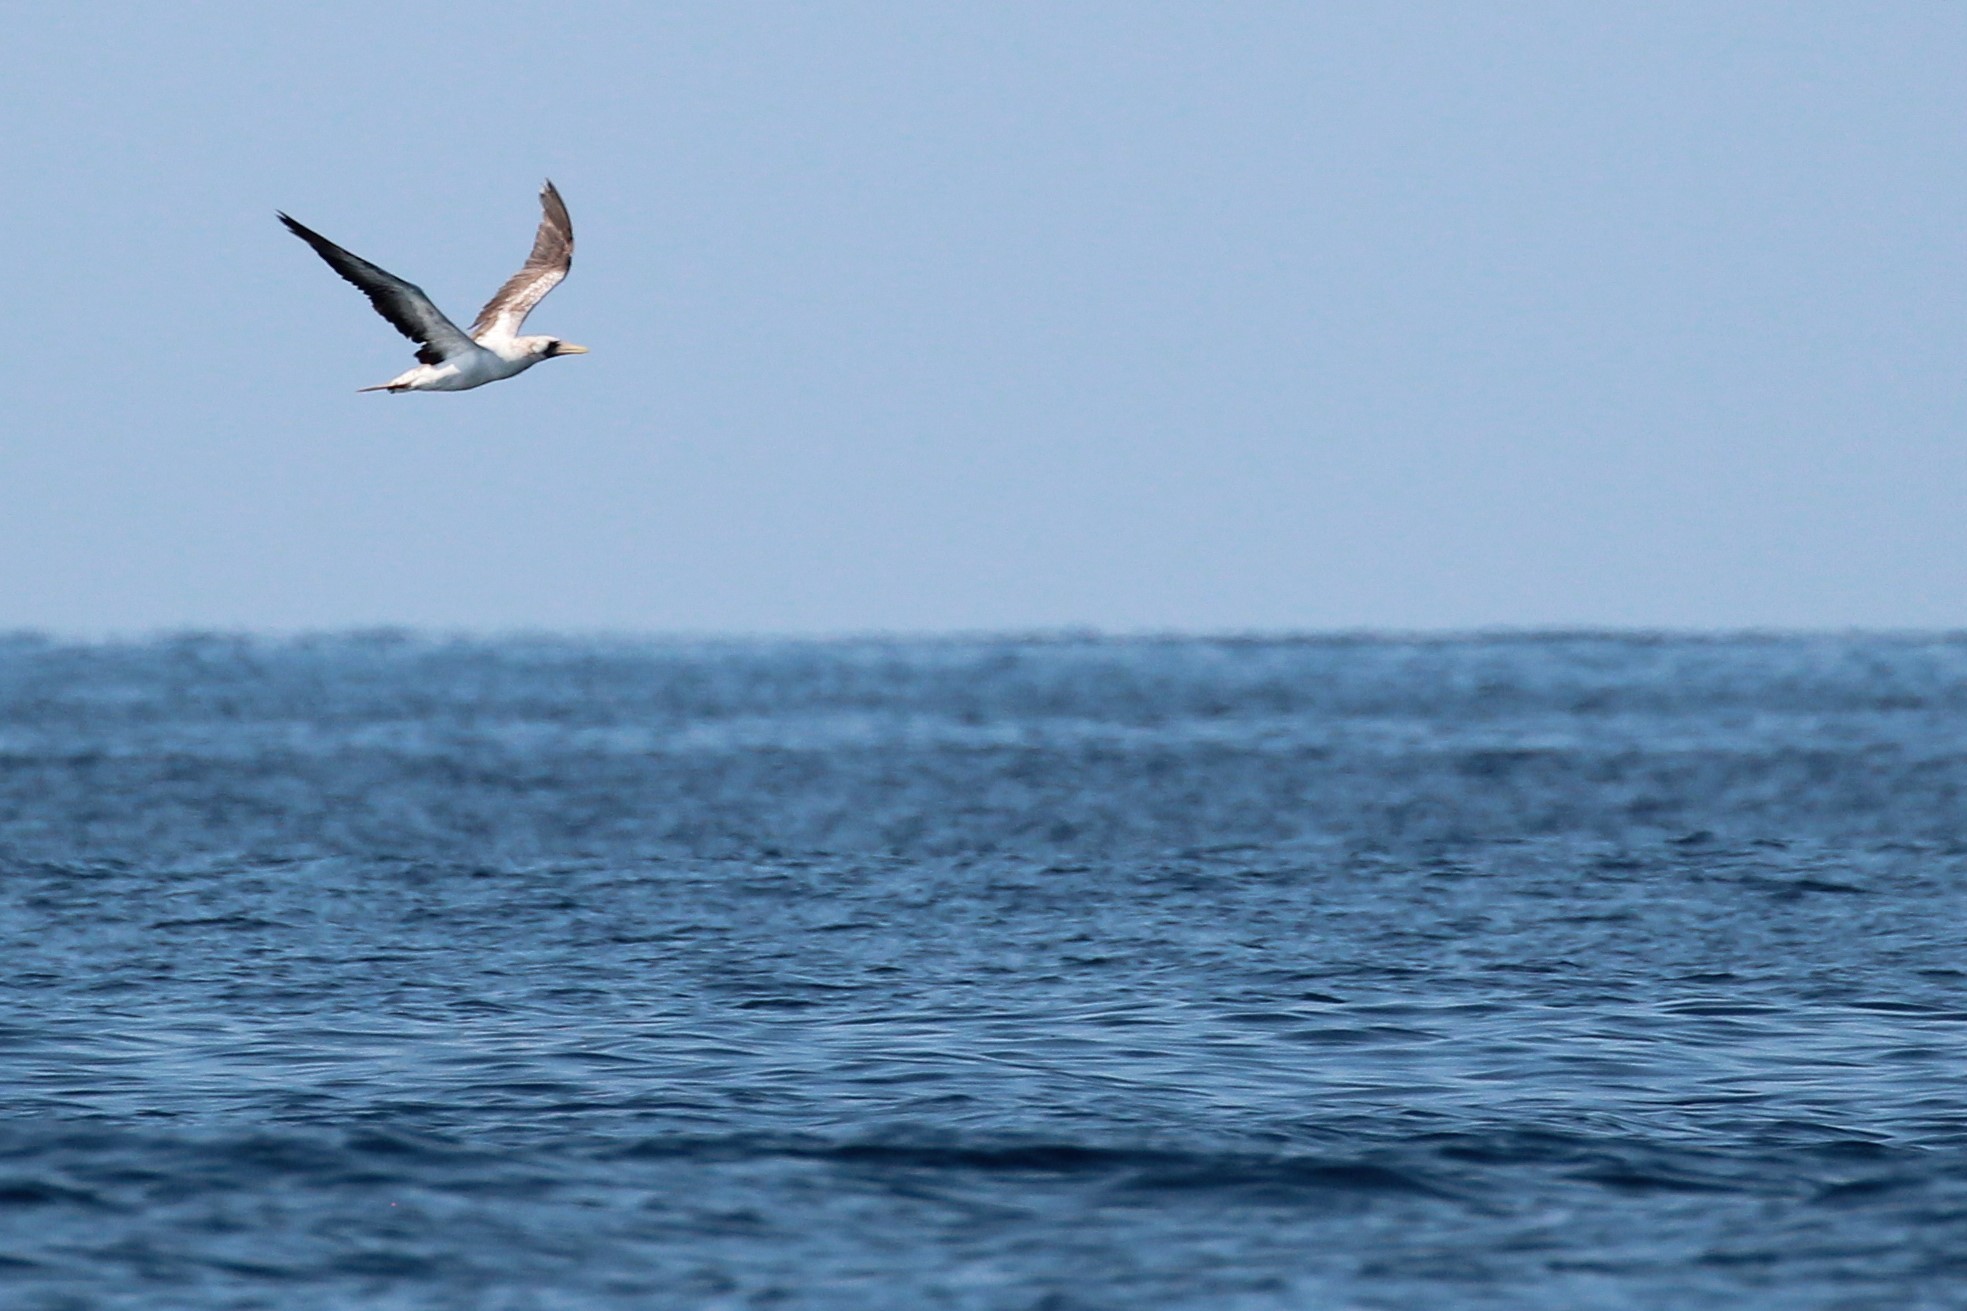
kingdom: Animalia
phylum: Chordata
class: Aves
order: Suliformes
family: Sulidae
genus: Sula
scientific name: Sula dactylatra
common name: Masked booby
